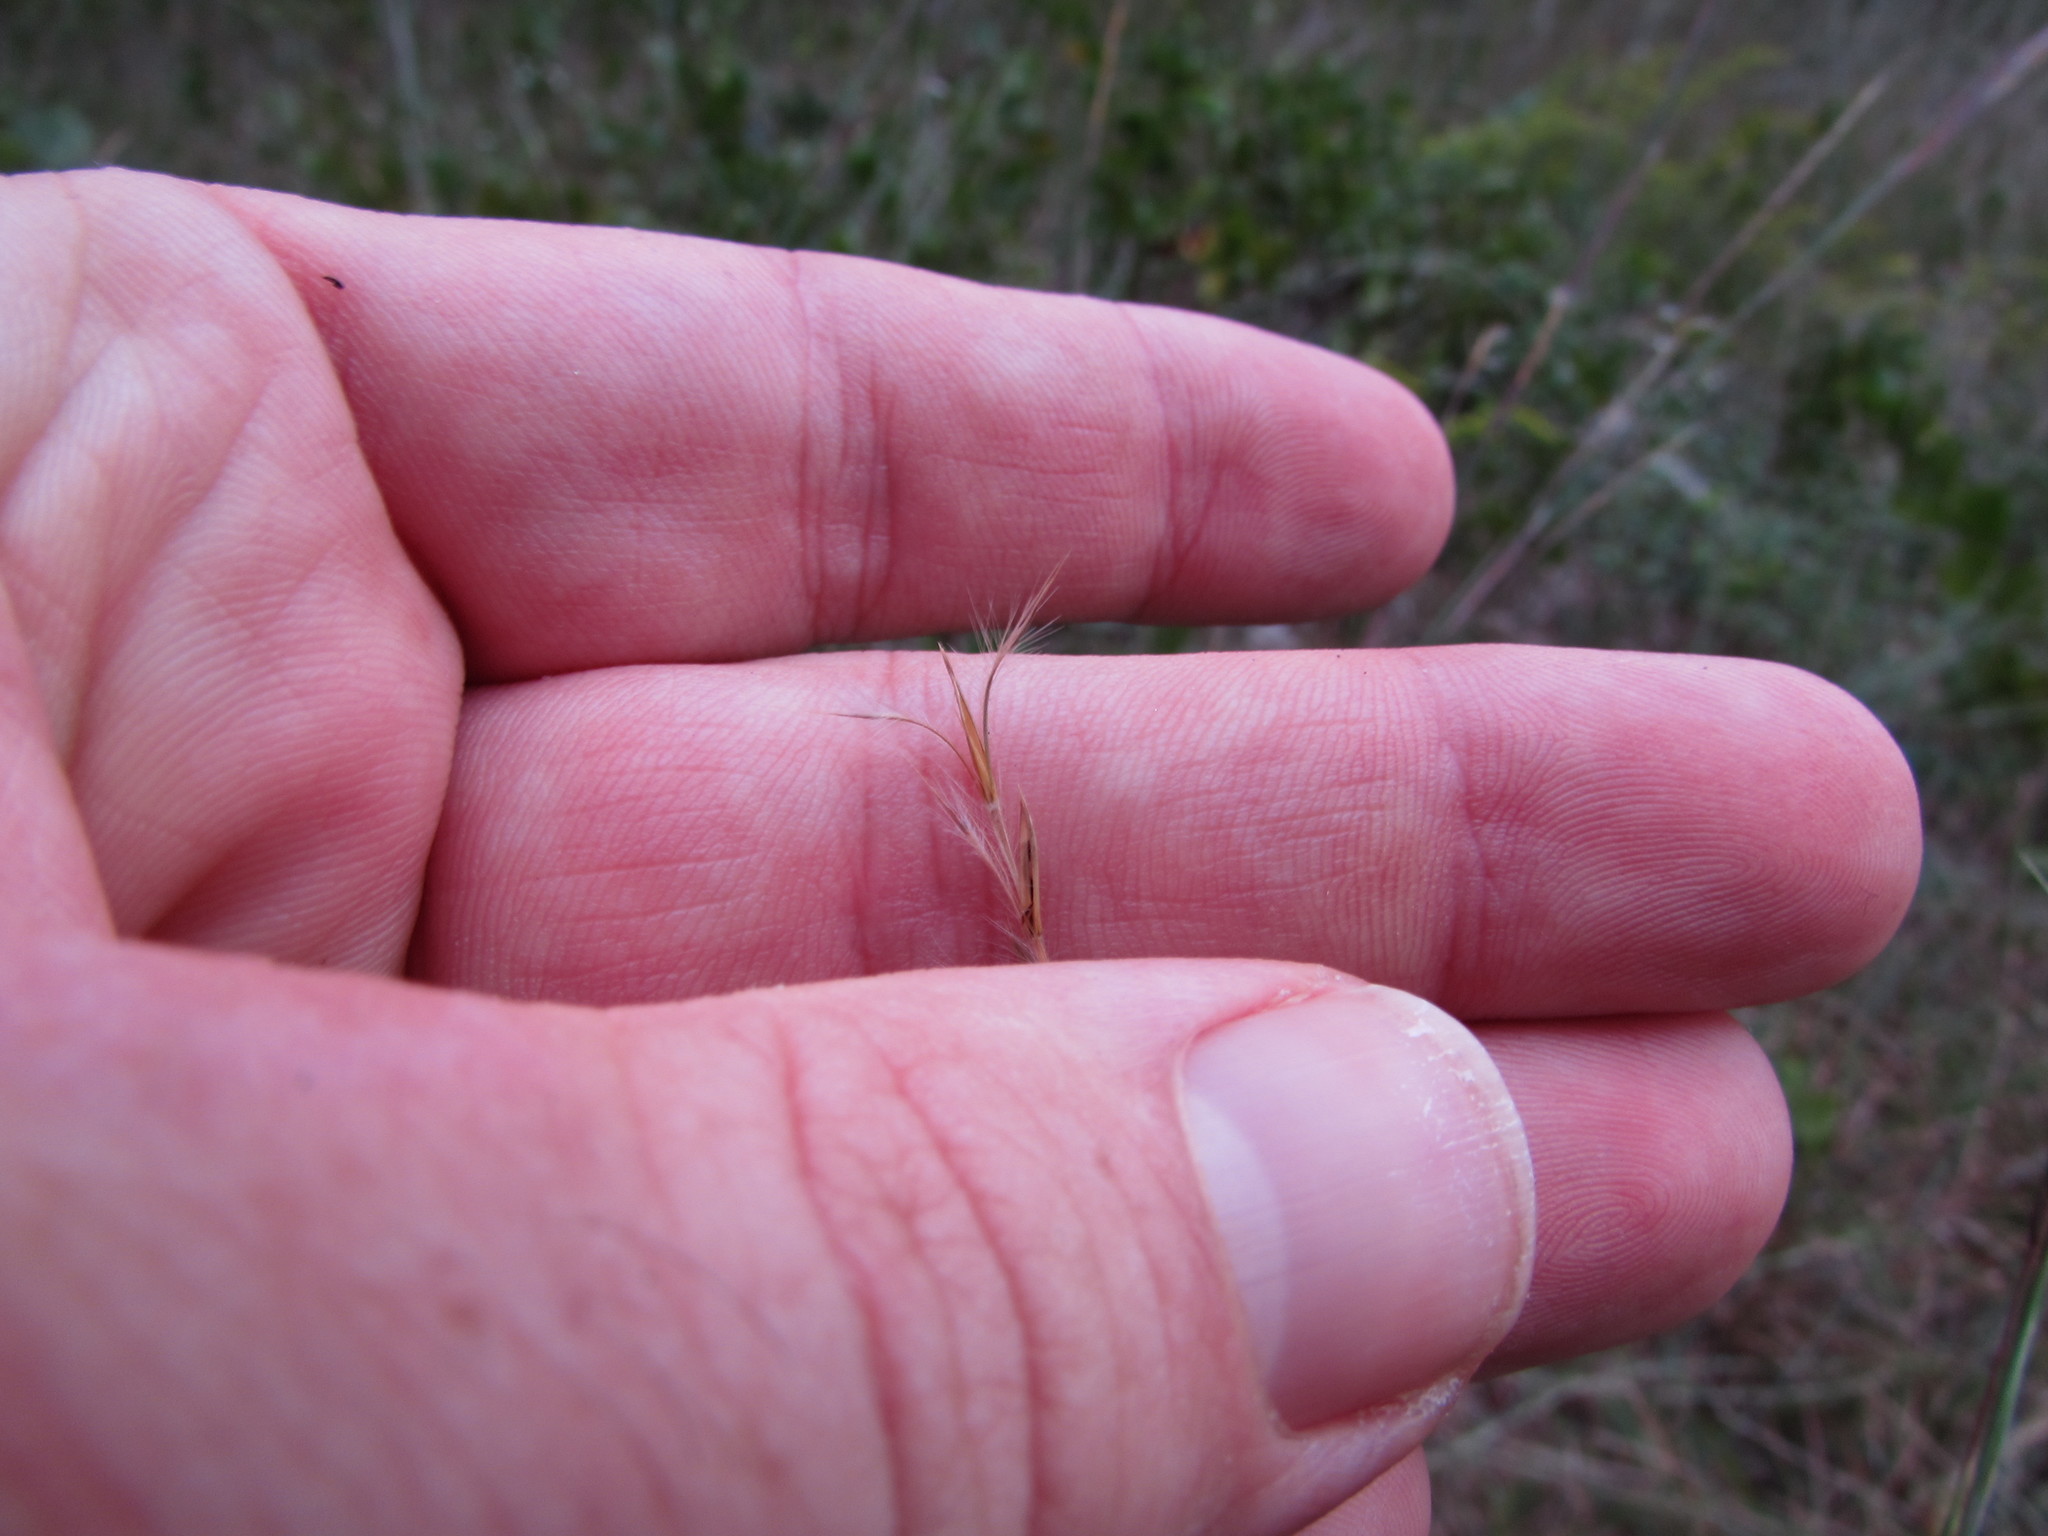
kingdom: Plantae
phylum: Tracheophyta
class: Liliopsida
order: Poales
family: Poaceae
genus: Schizachyrium
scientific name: Schizachyrium scoparium
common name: Little bluestem
